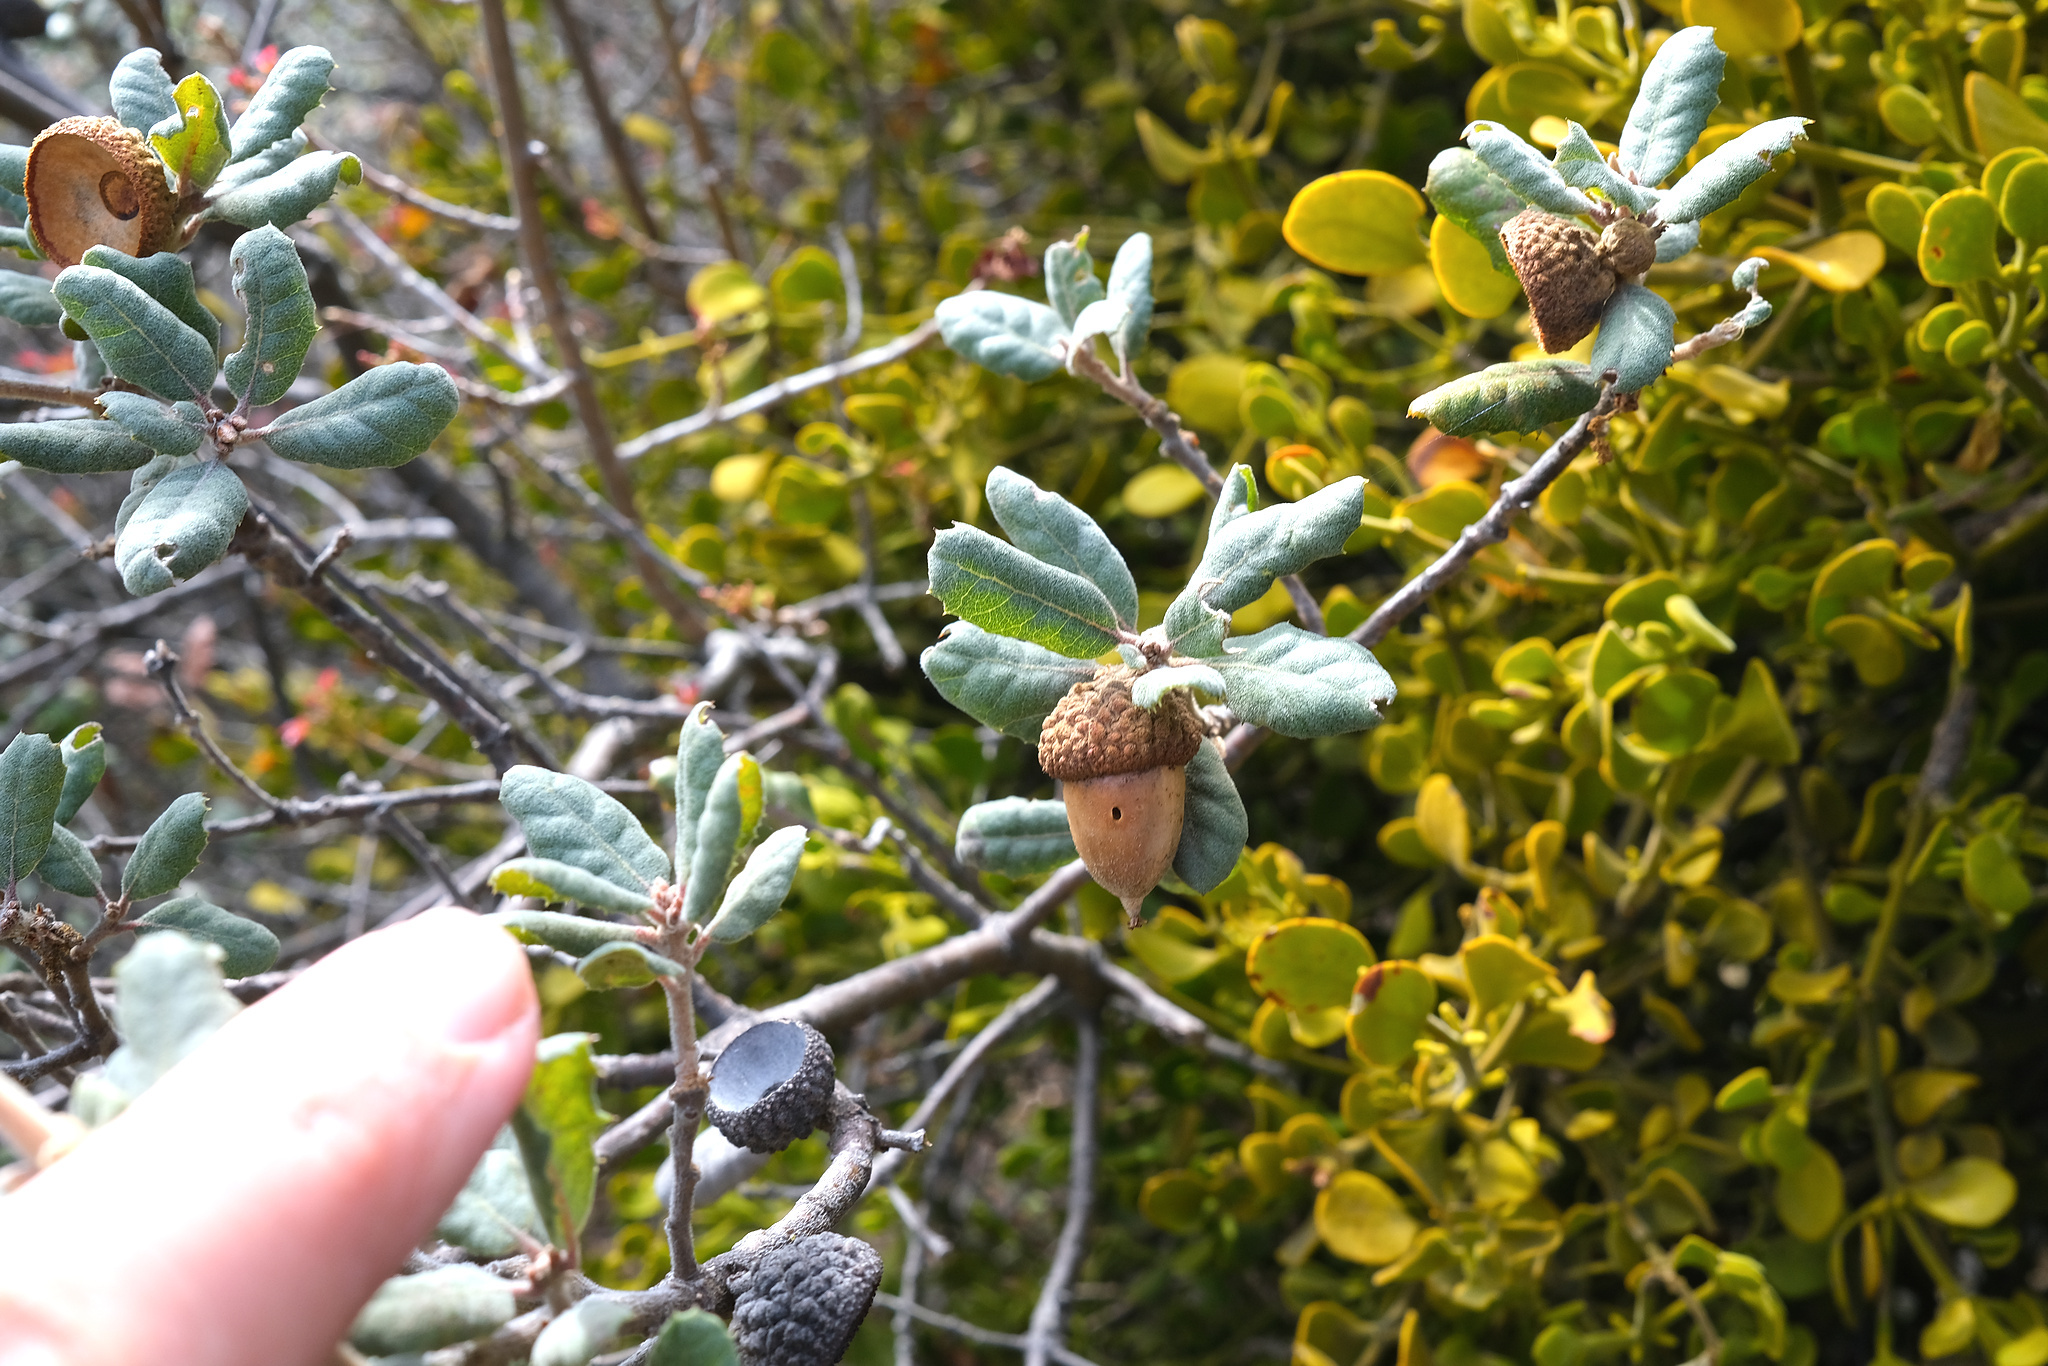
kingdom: Plantae
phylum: Tracheophyta
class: Magnoliopsida
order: Fagales
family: Fagaceae
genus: Quercus
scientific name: Quercus durata
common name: Leather oak
